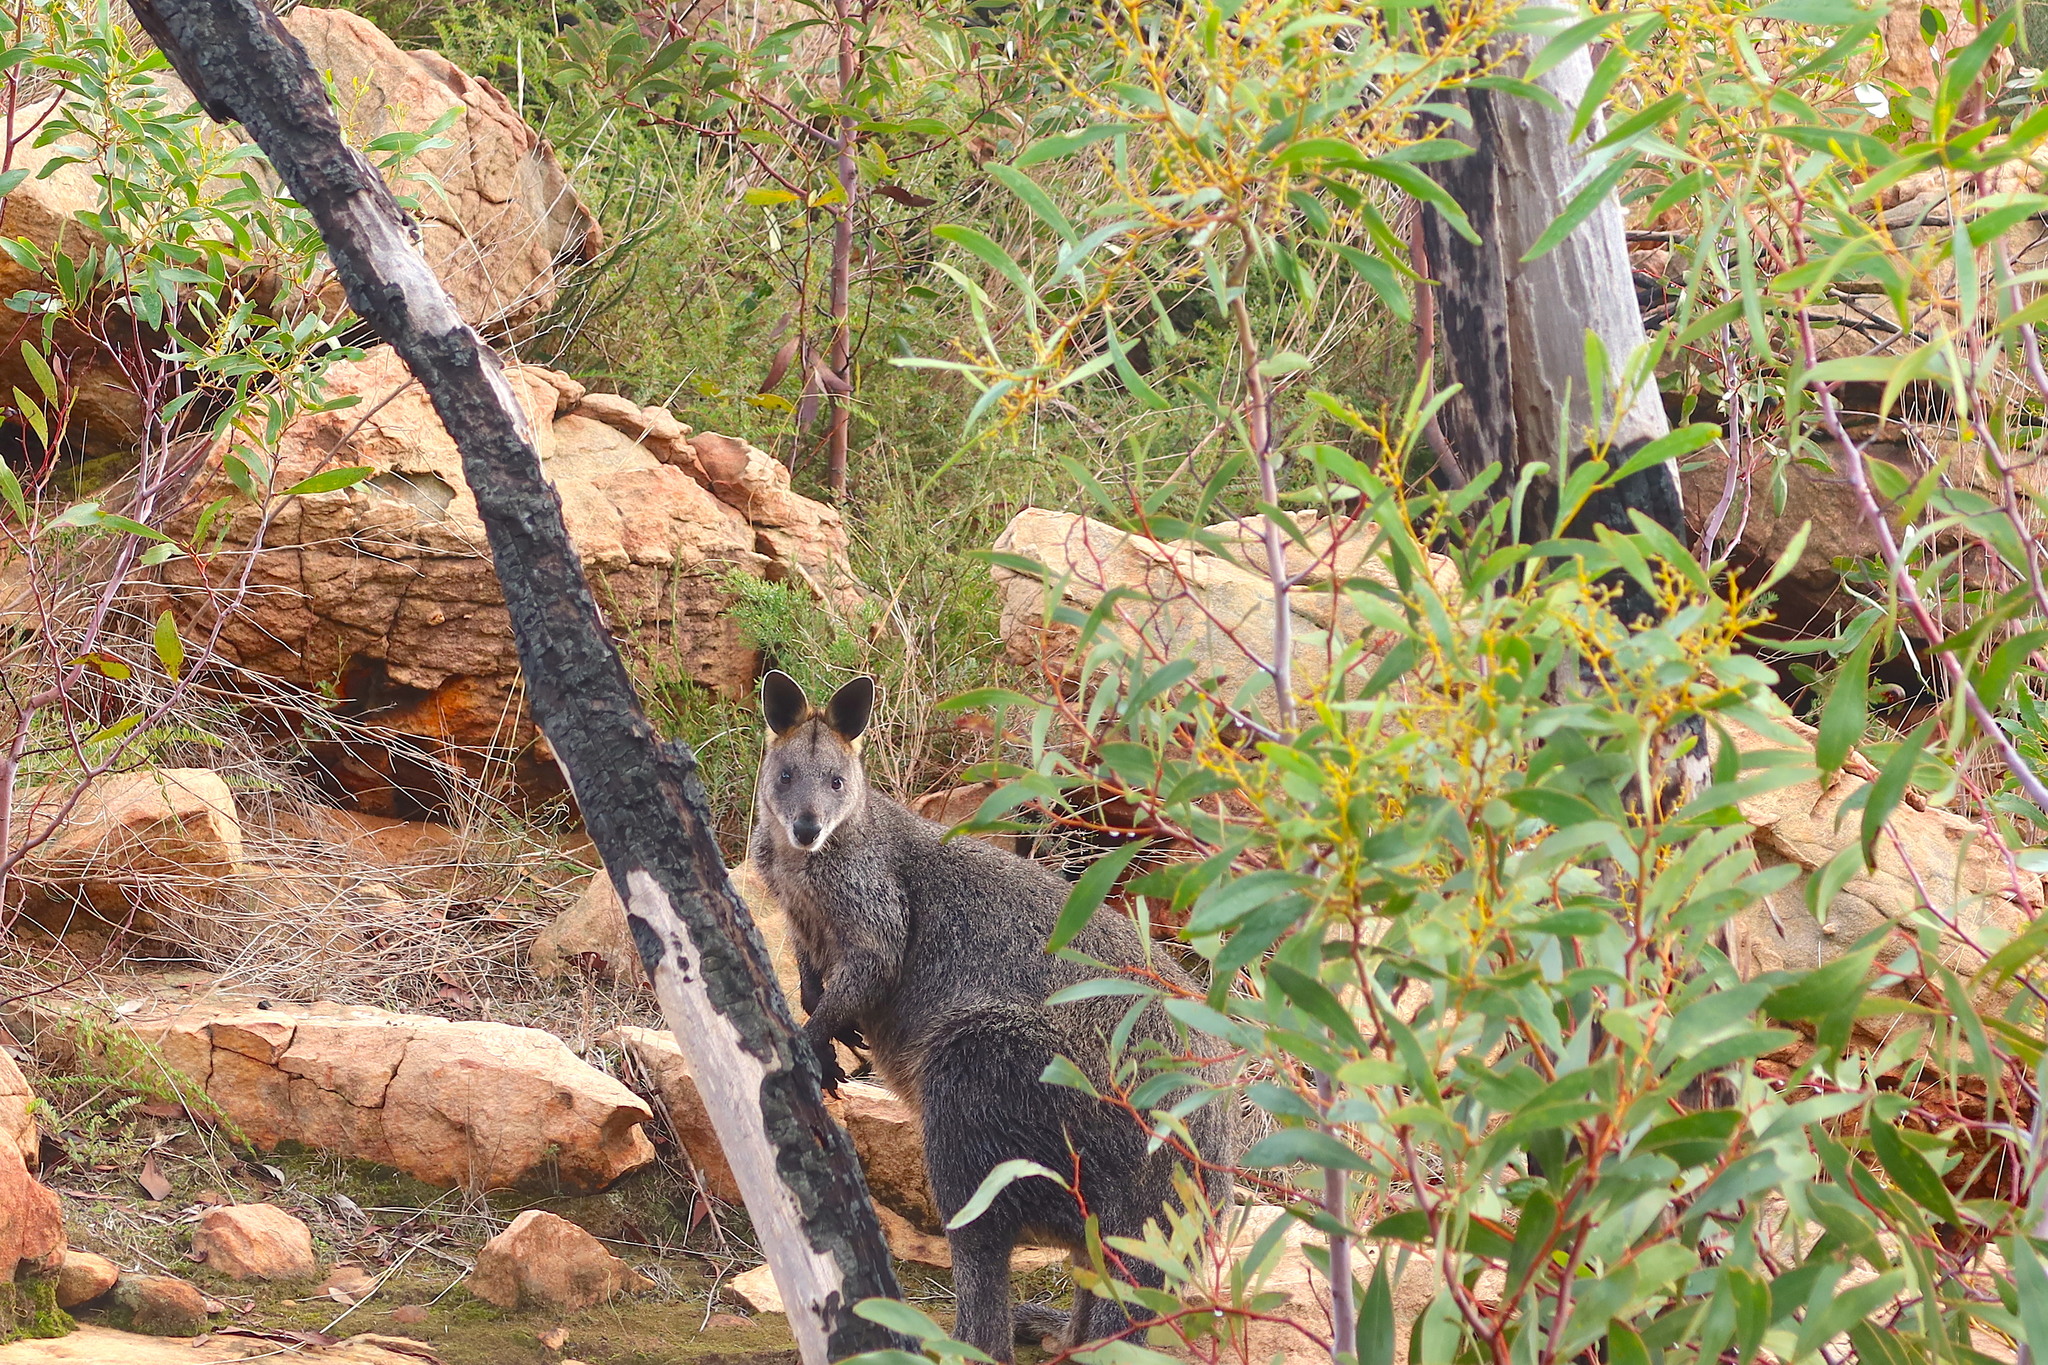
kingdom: Animalia
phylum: Chordata
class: Mammalia
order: Diprotodontia
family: Macropodidae
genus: Wallabia
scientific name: Wallabia bicolor
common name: Swamp wallaby
